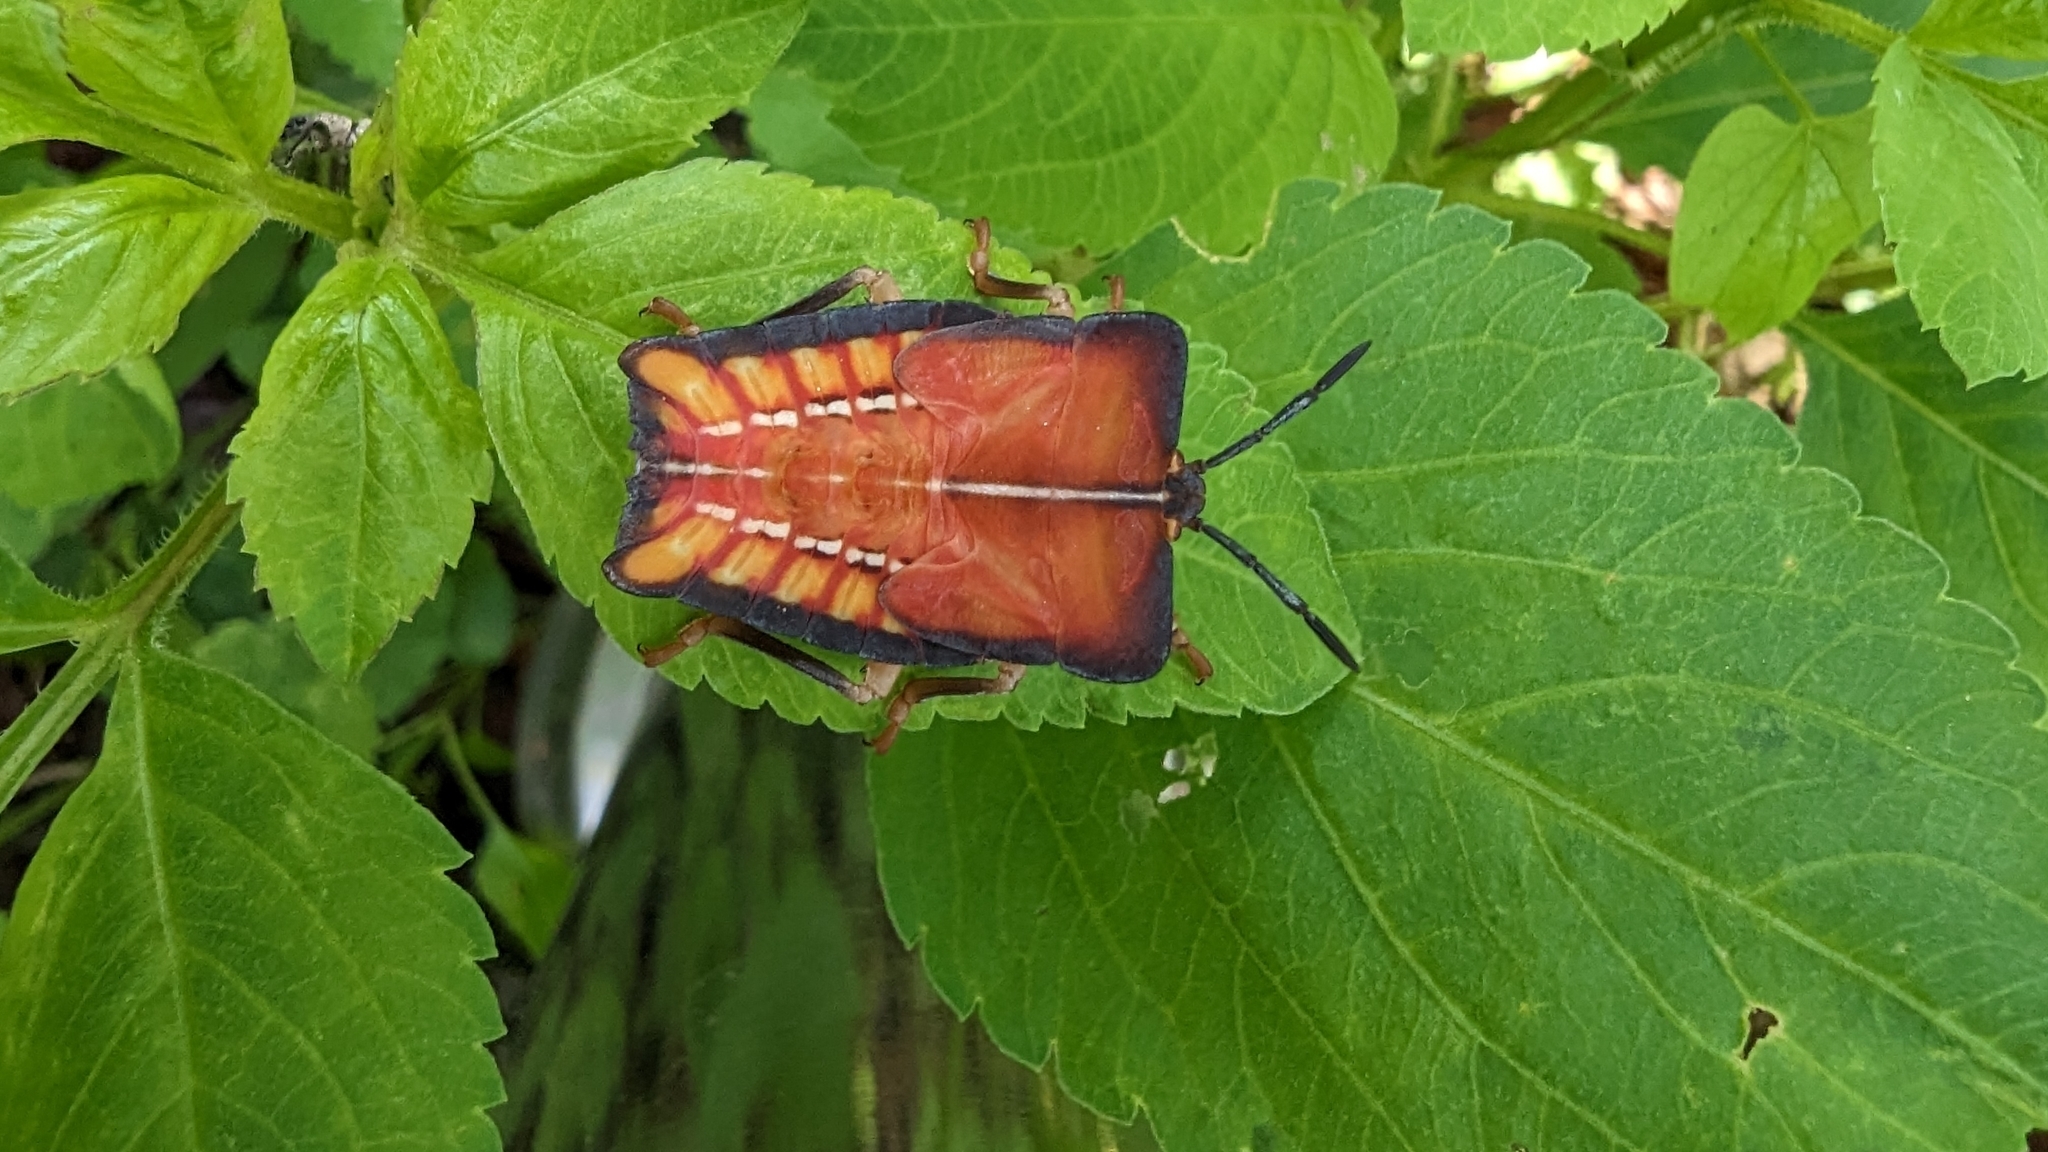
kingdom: Animalia
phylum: Arthropoda
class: Insecta
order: Hemiptera
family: Tessaratomidae
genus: Tessaratoma
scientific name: Tessaratoma papillosa
